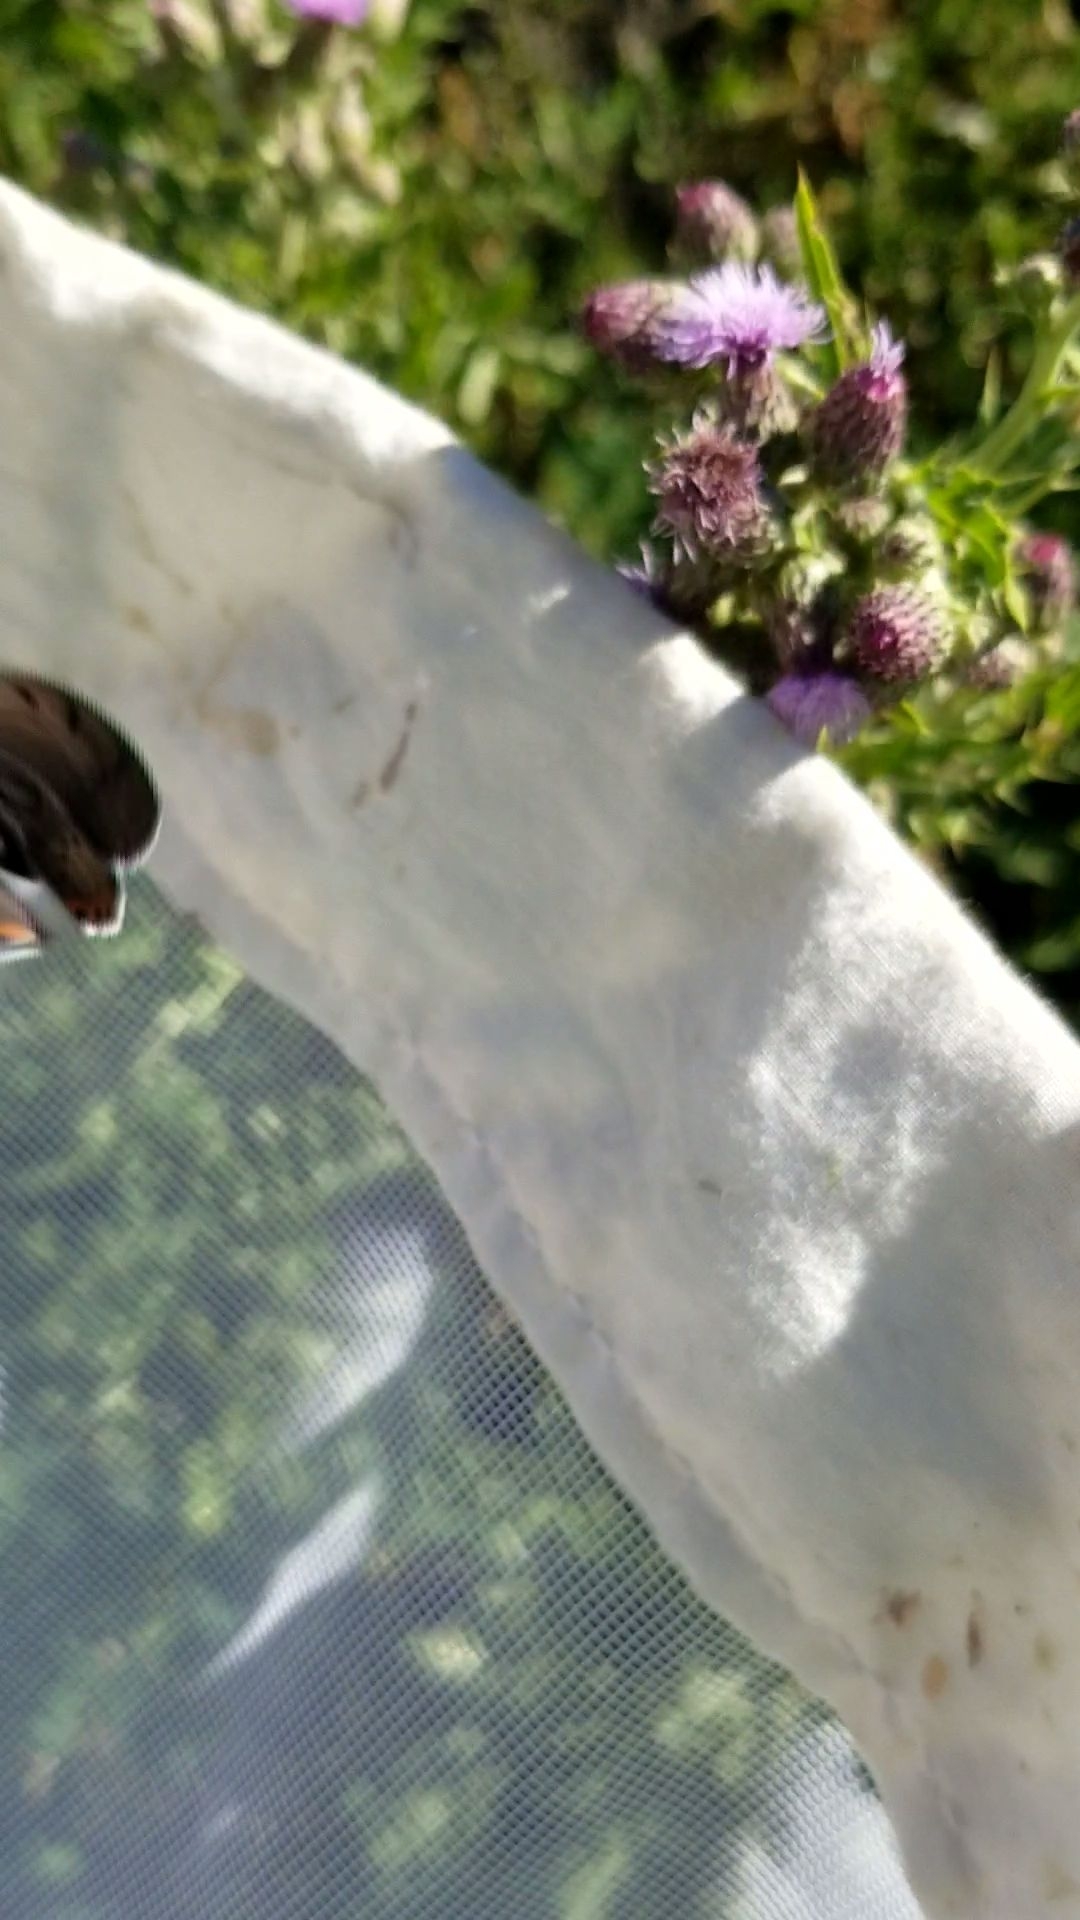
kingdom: Animalia
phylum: Arthropoda
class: Insecta
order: Lepidoptera
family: Lycaenidae
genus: Tharsalea
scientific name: Tharsalea dione
